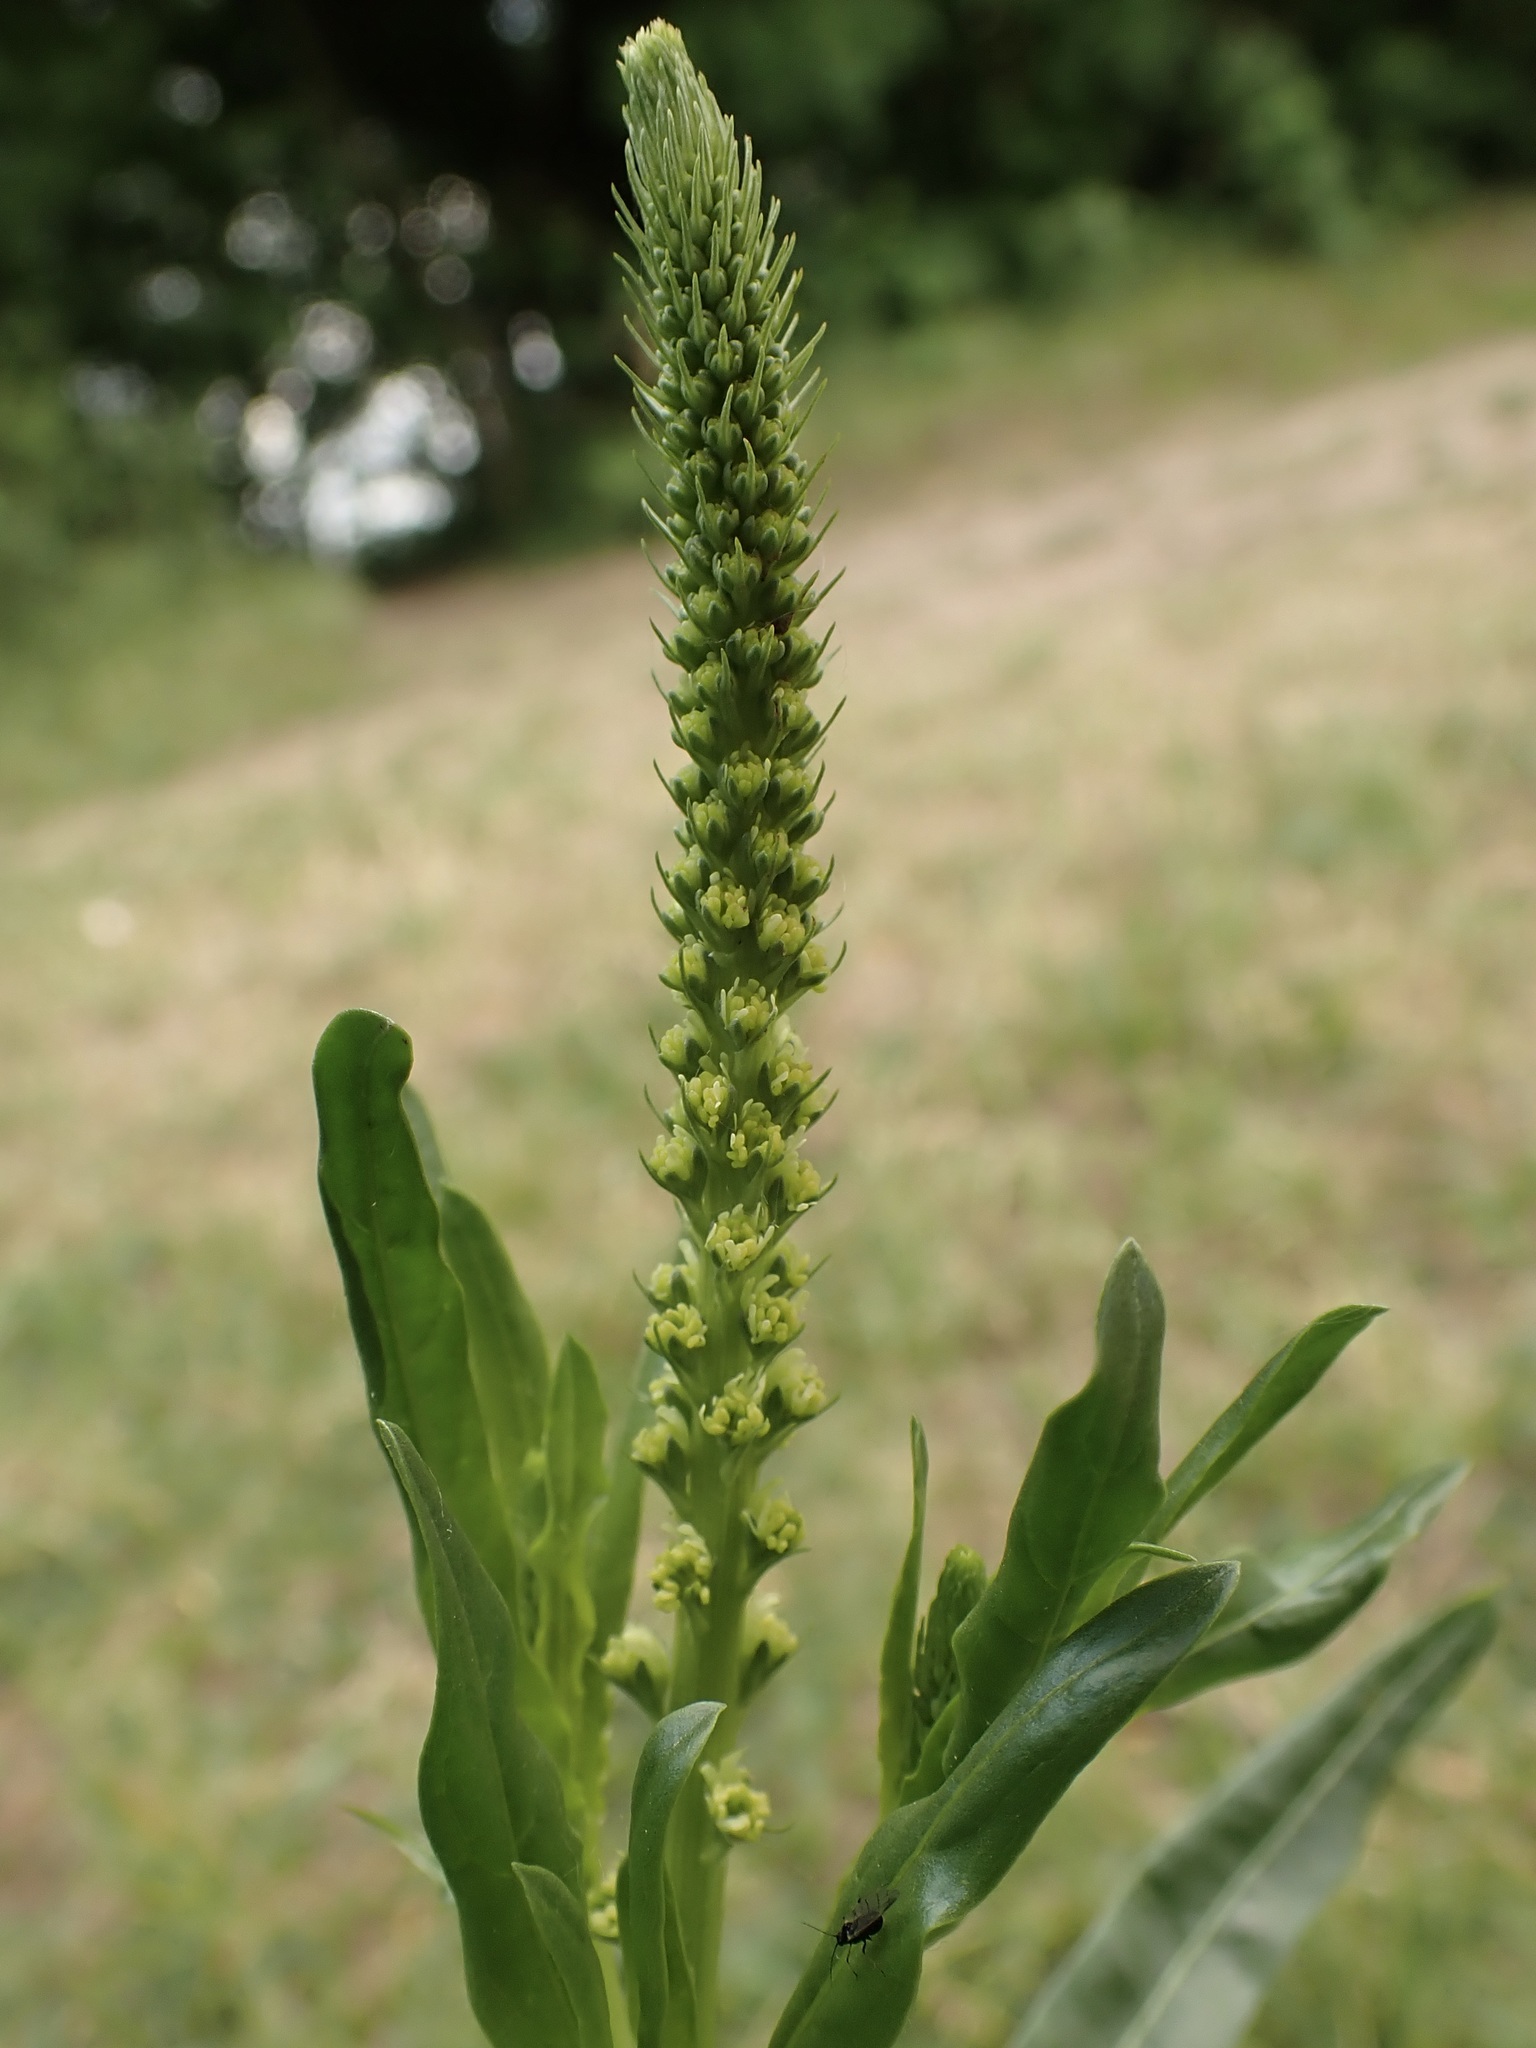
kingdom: Plantae
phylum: Tracheophyta
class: Magnoliopsida
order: Brassicales
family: Resedaceae
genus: Reseda
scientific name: Reseda luteola
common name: Weld
